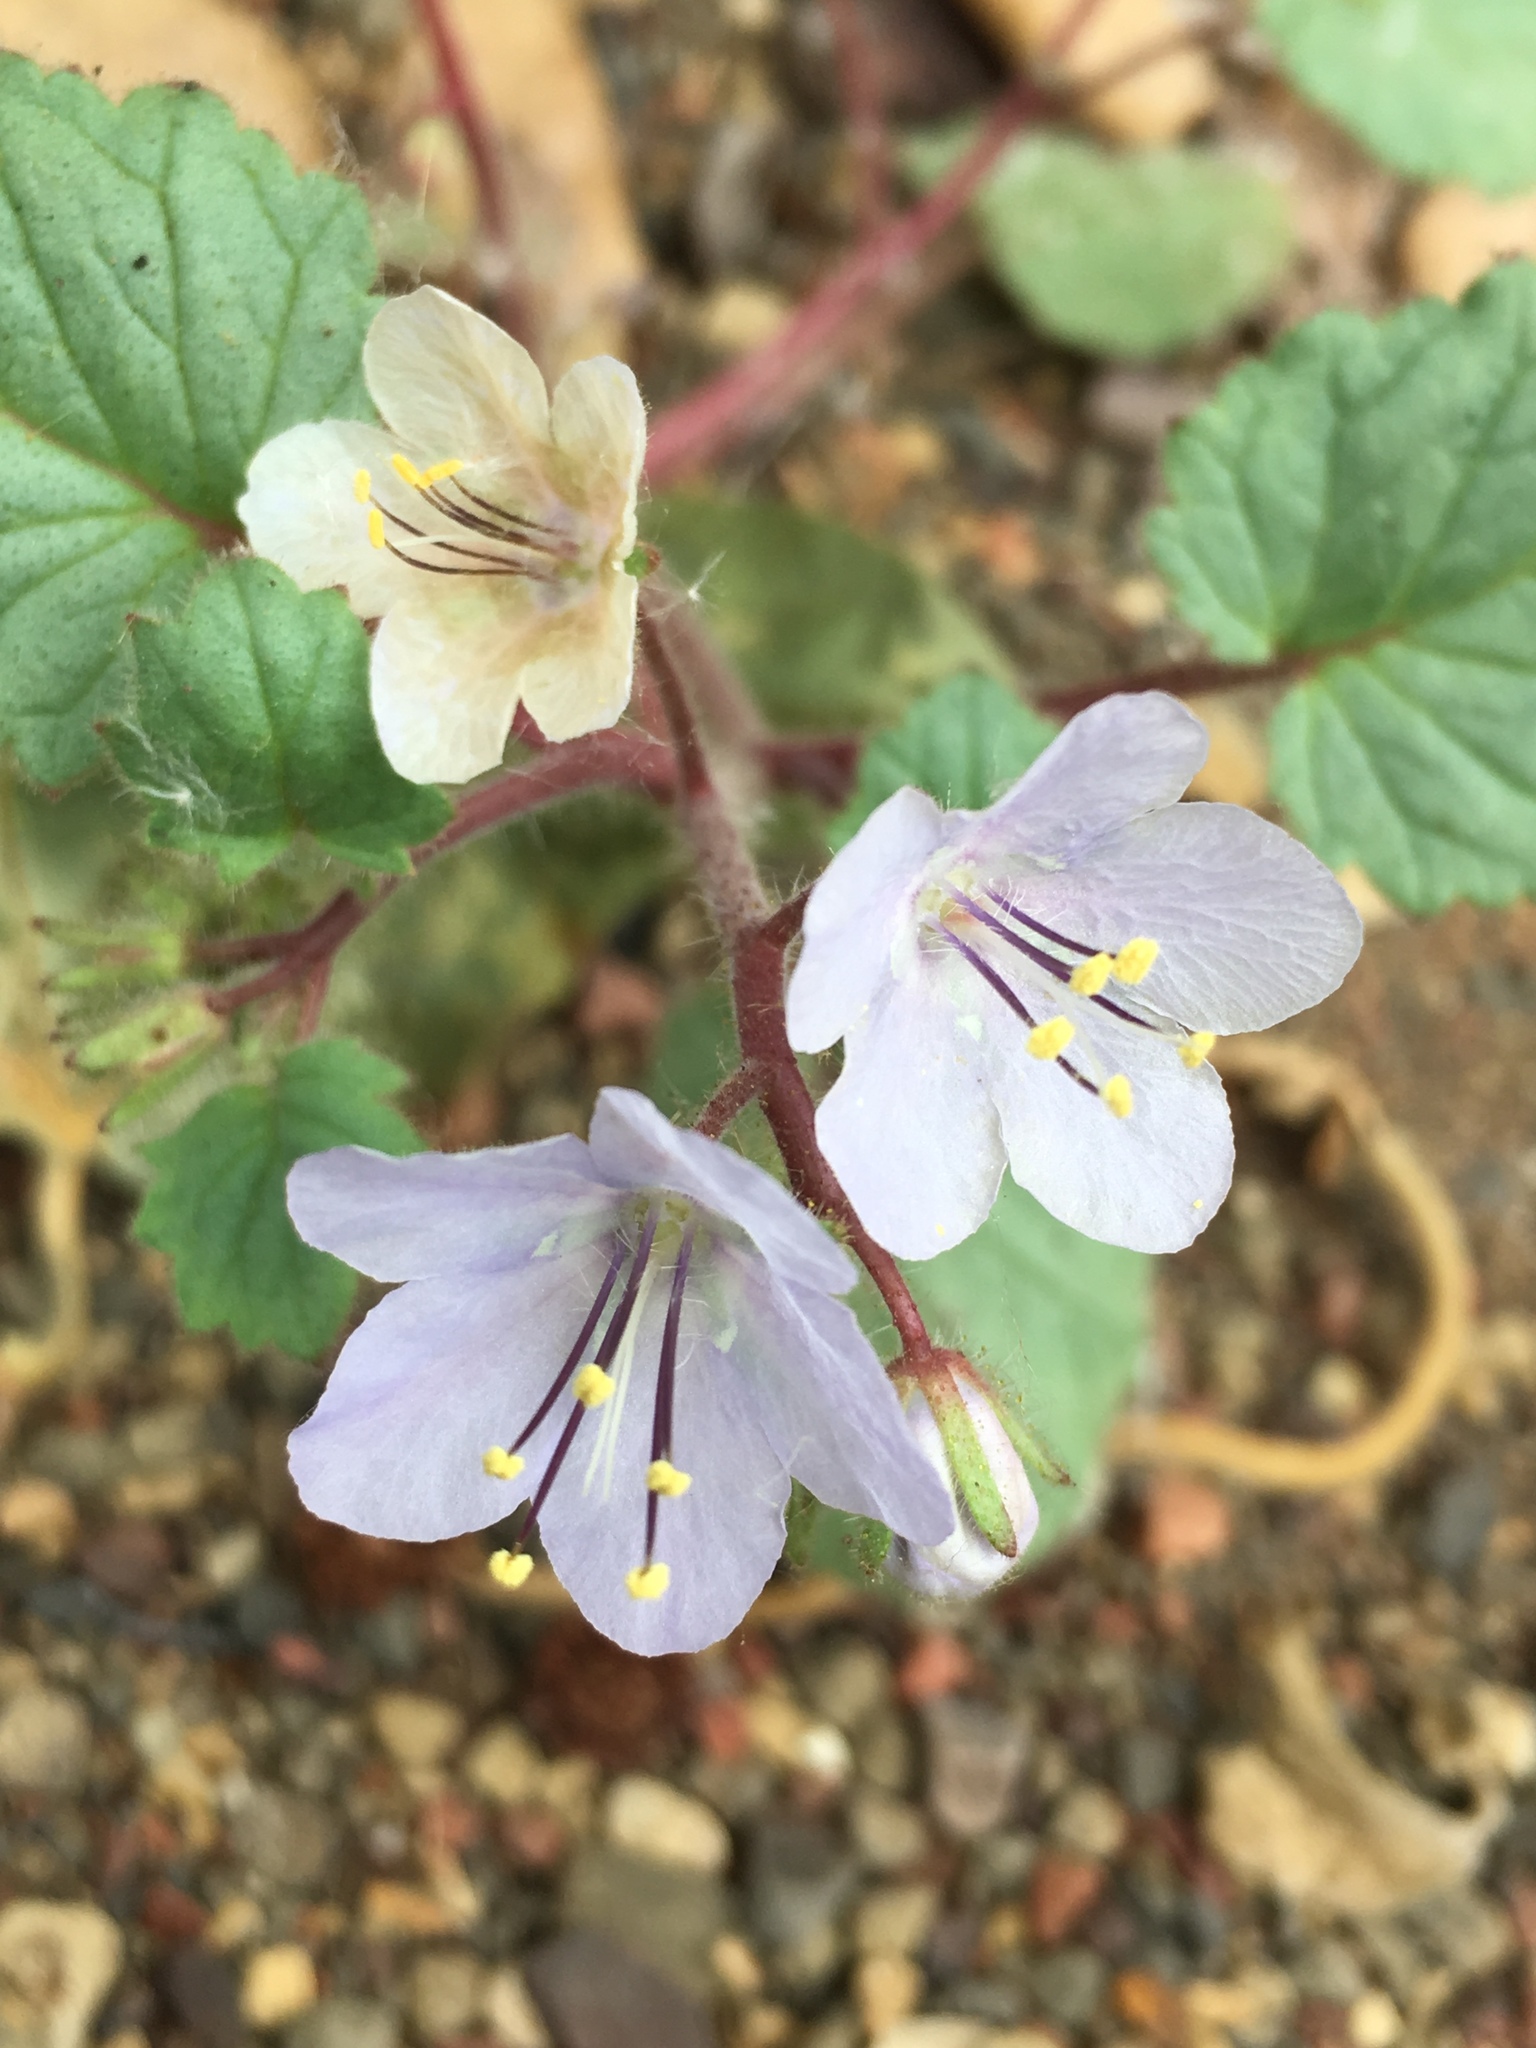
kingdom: Plantae
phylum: Tracheophyta
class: Magnoliopsida
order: Boraginales
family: Hydrophyllaceae
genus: Phacelia
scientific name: Phacelia longipes
